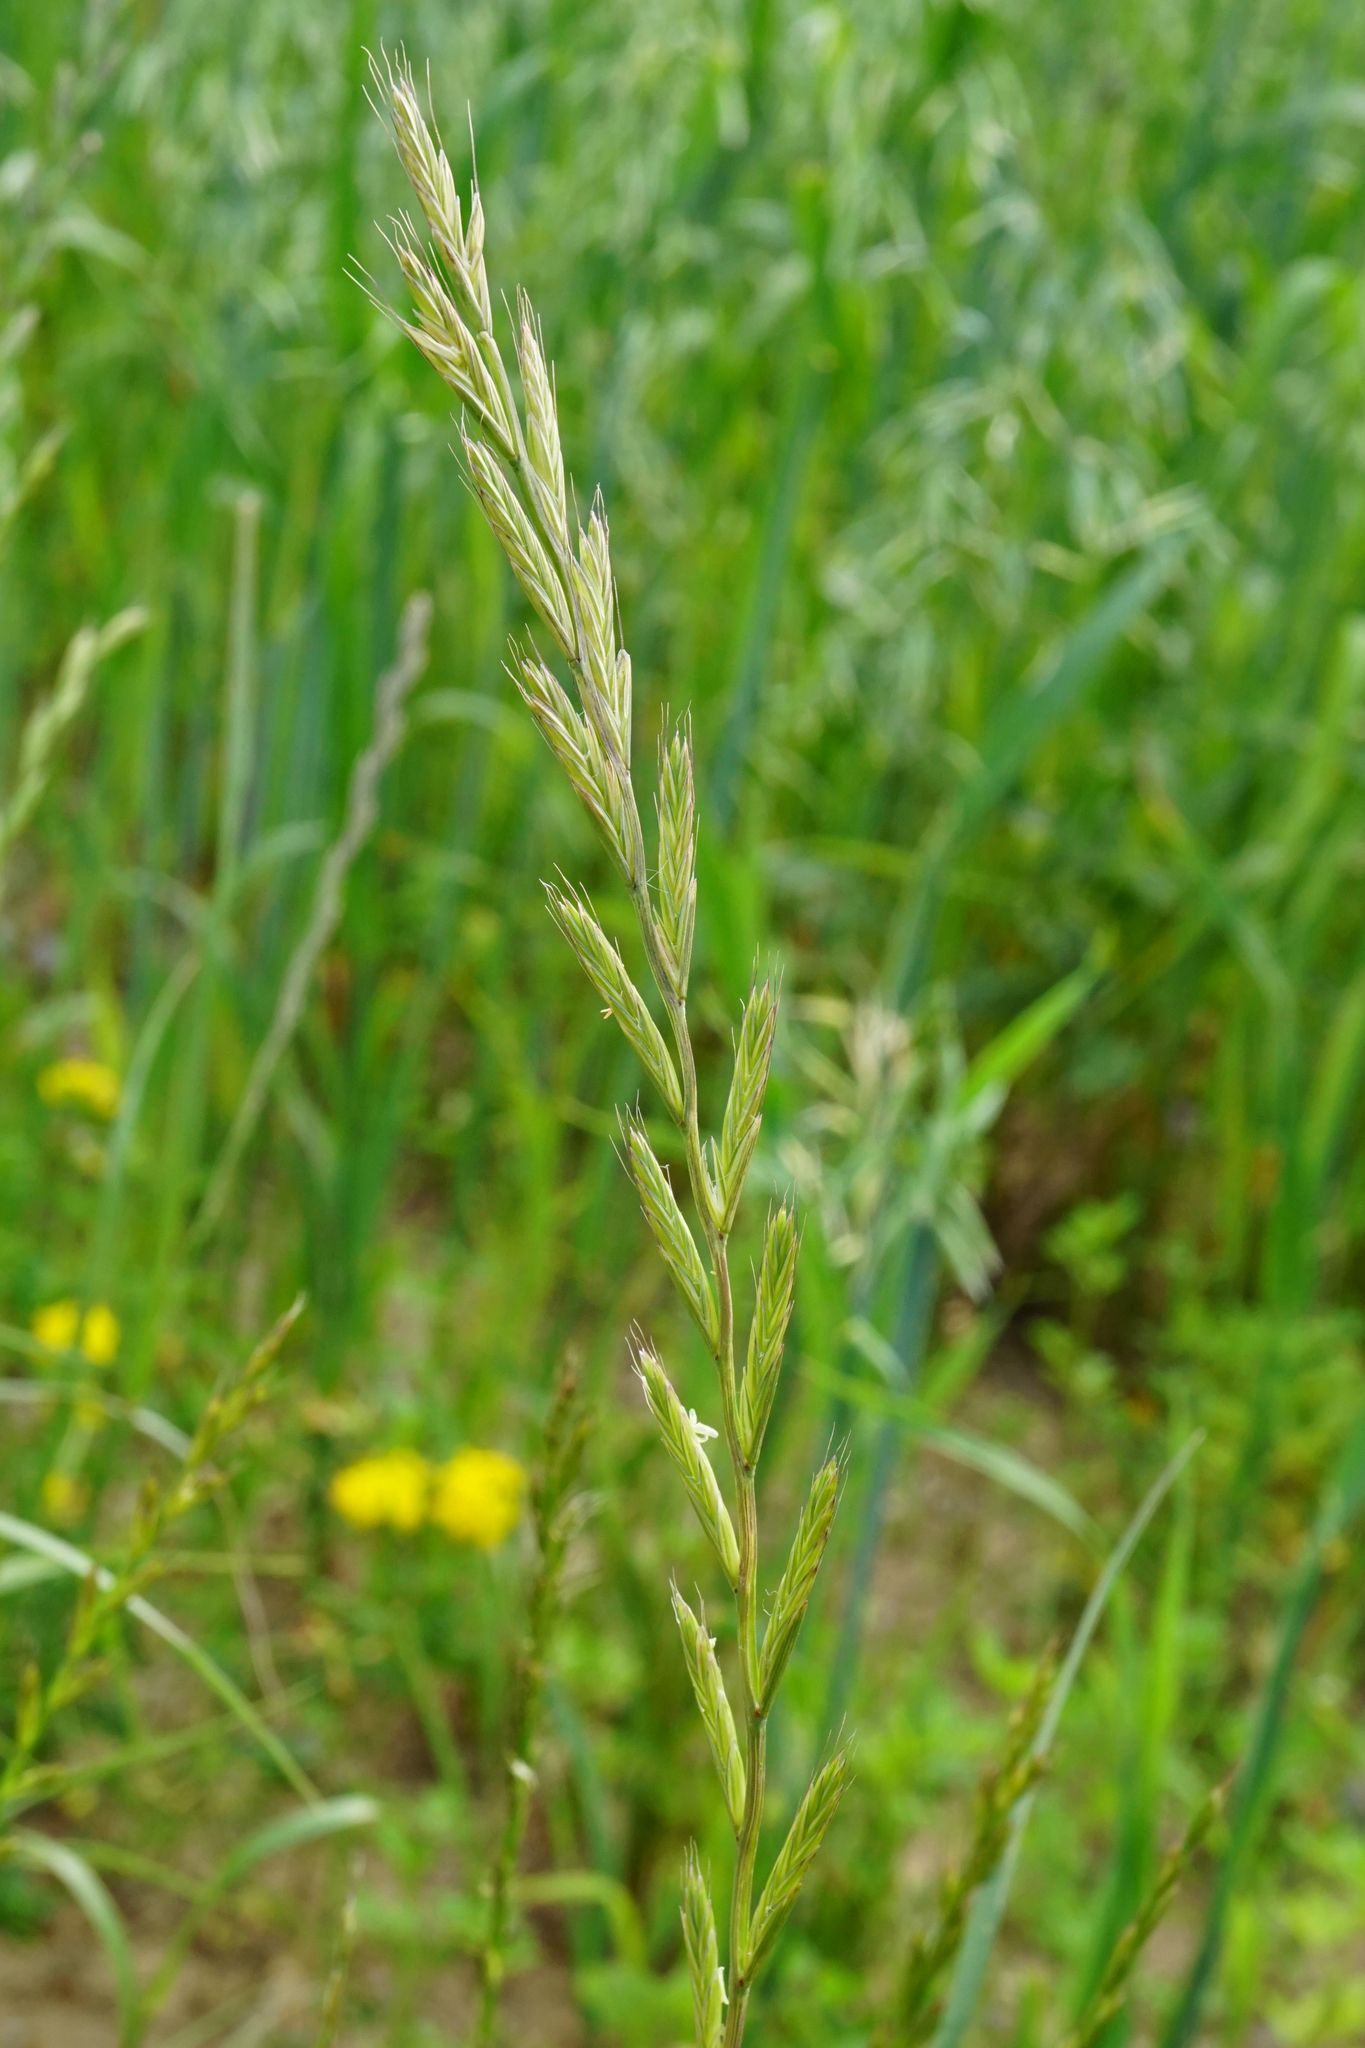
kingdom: Plantae
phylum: Tracheophyta
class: Liliopsida
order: Poales
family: Poaceae
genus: Lolium
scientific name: Lolium multiflorum
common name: Annual ryegrass
